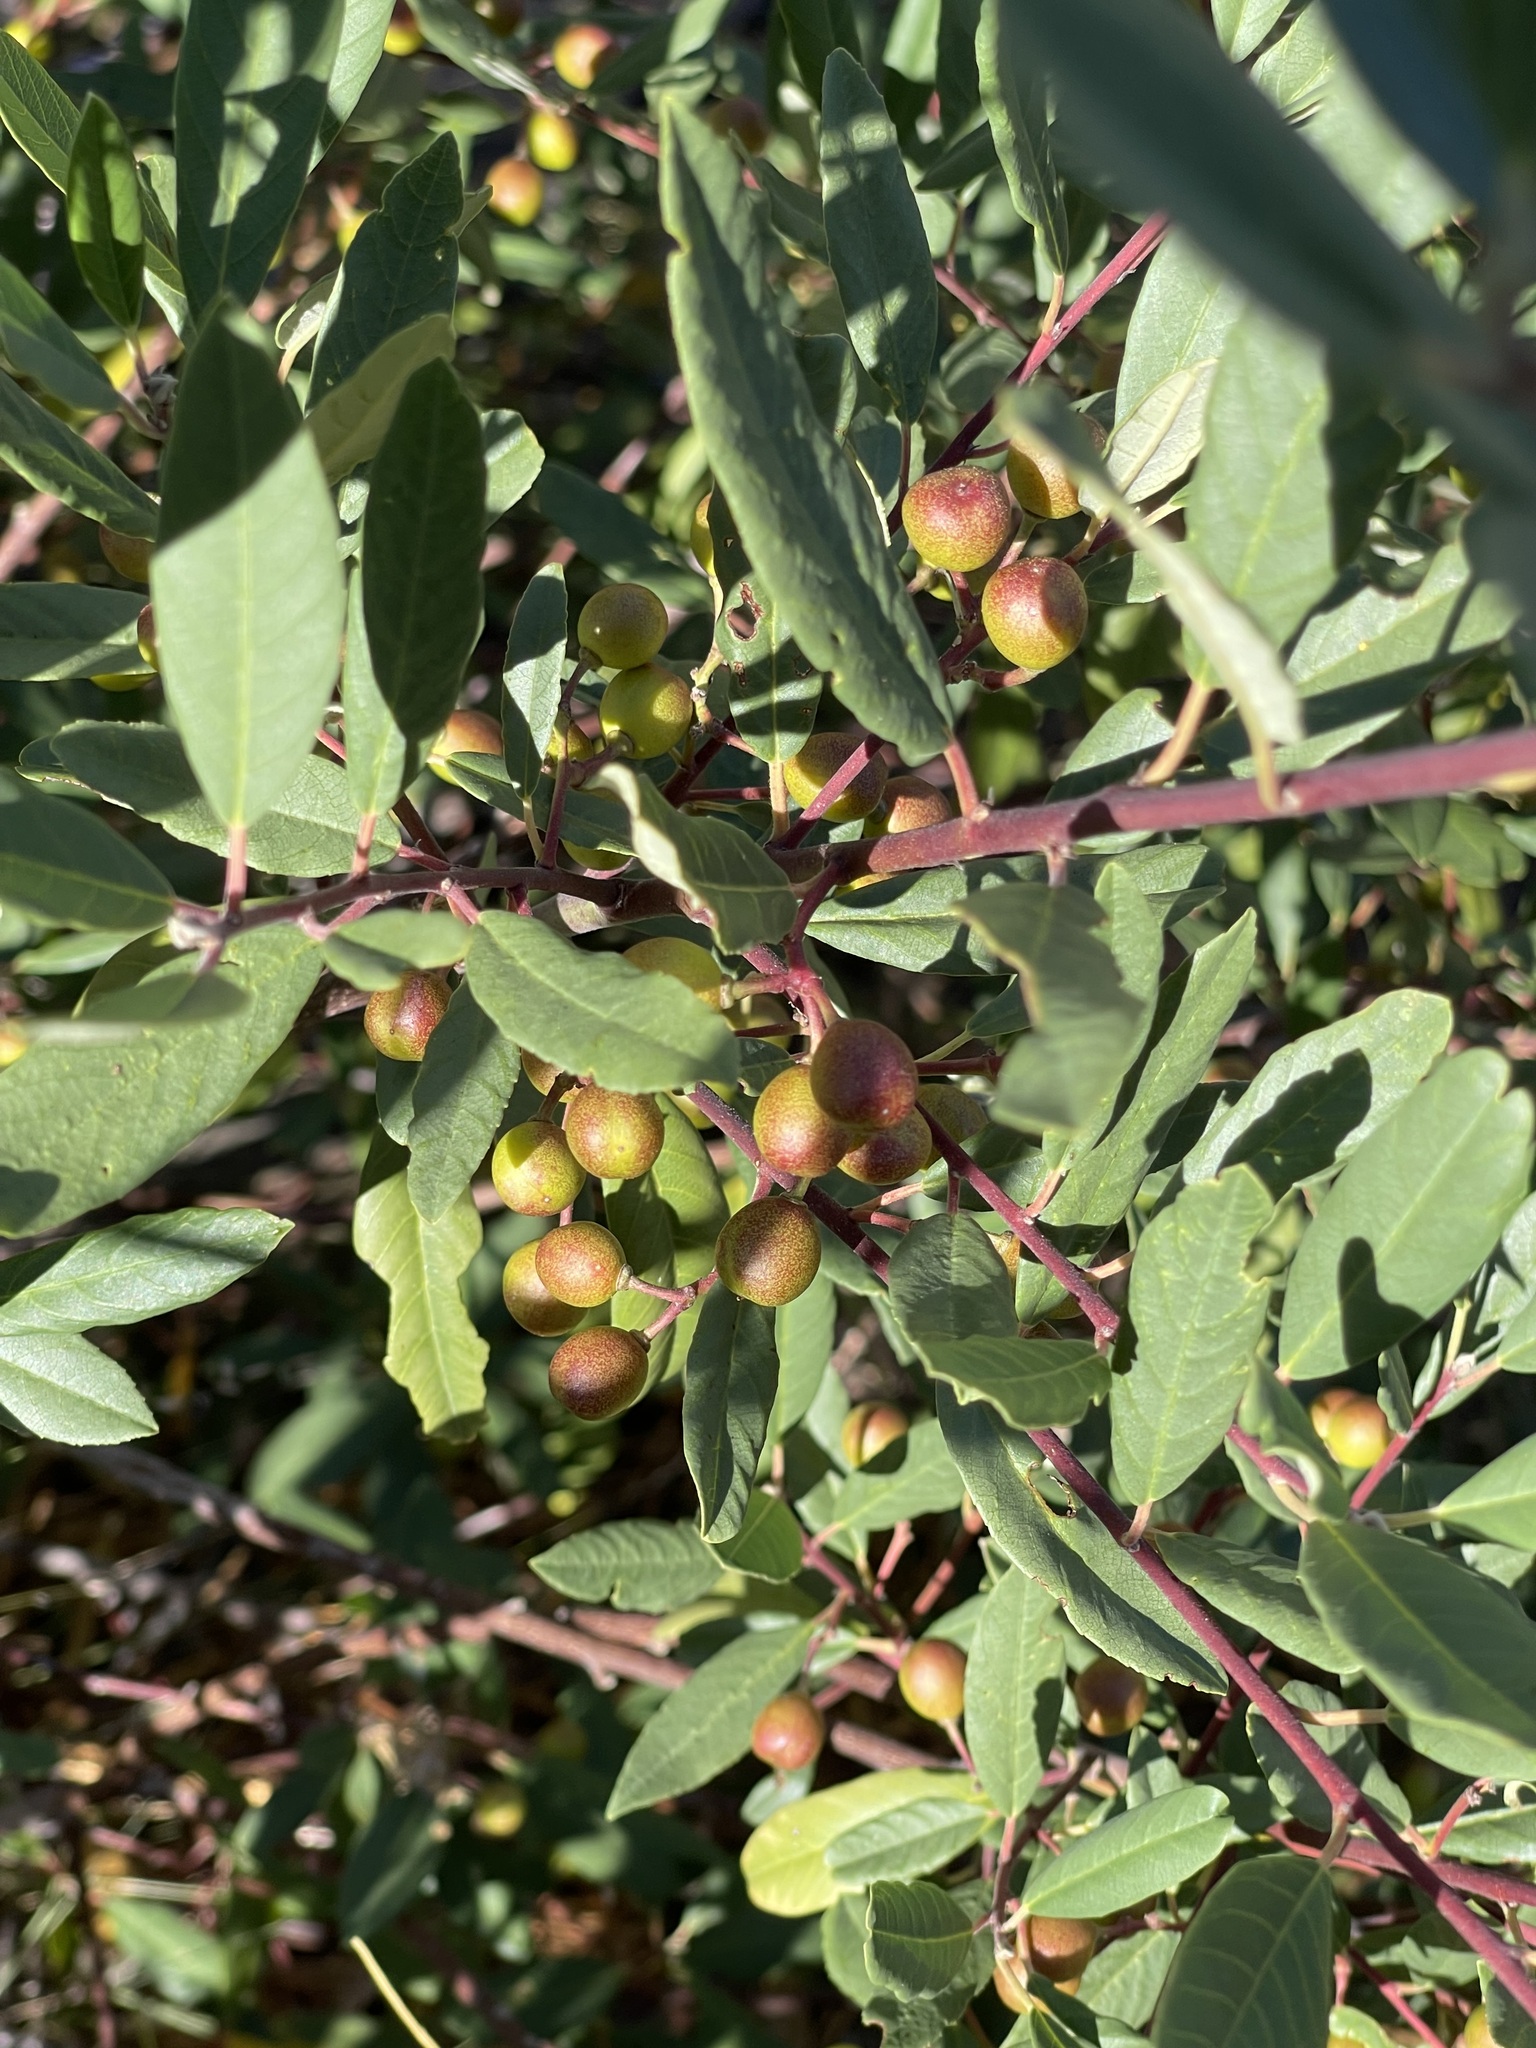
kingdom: Plantae
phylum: Tracheophyta
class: Magnoliopsida
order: Rosales
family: Rhamnaceae
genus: Frangula
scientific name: Frangula californica
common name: California buckthorn
